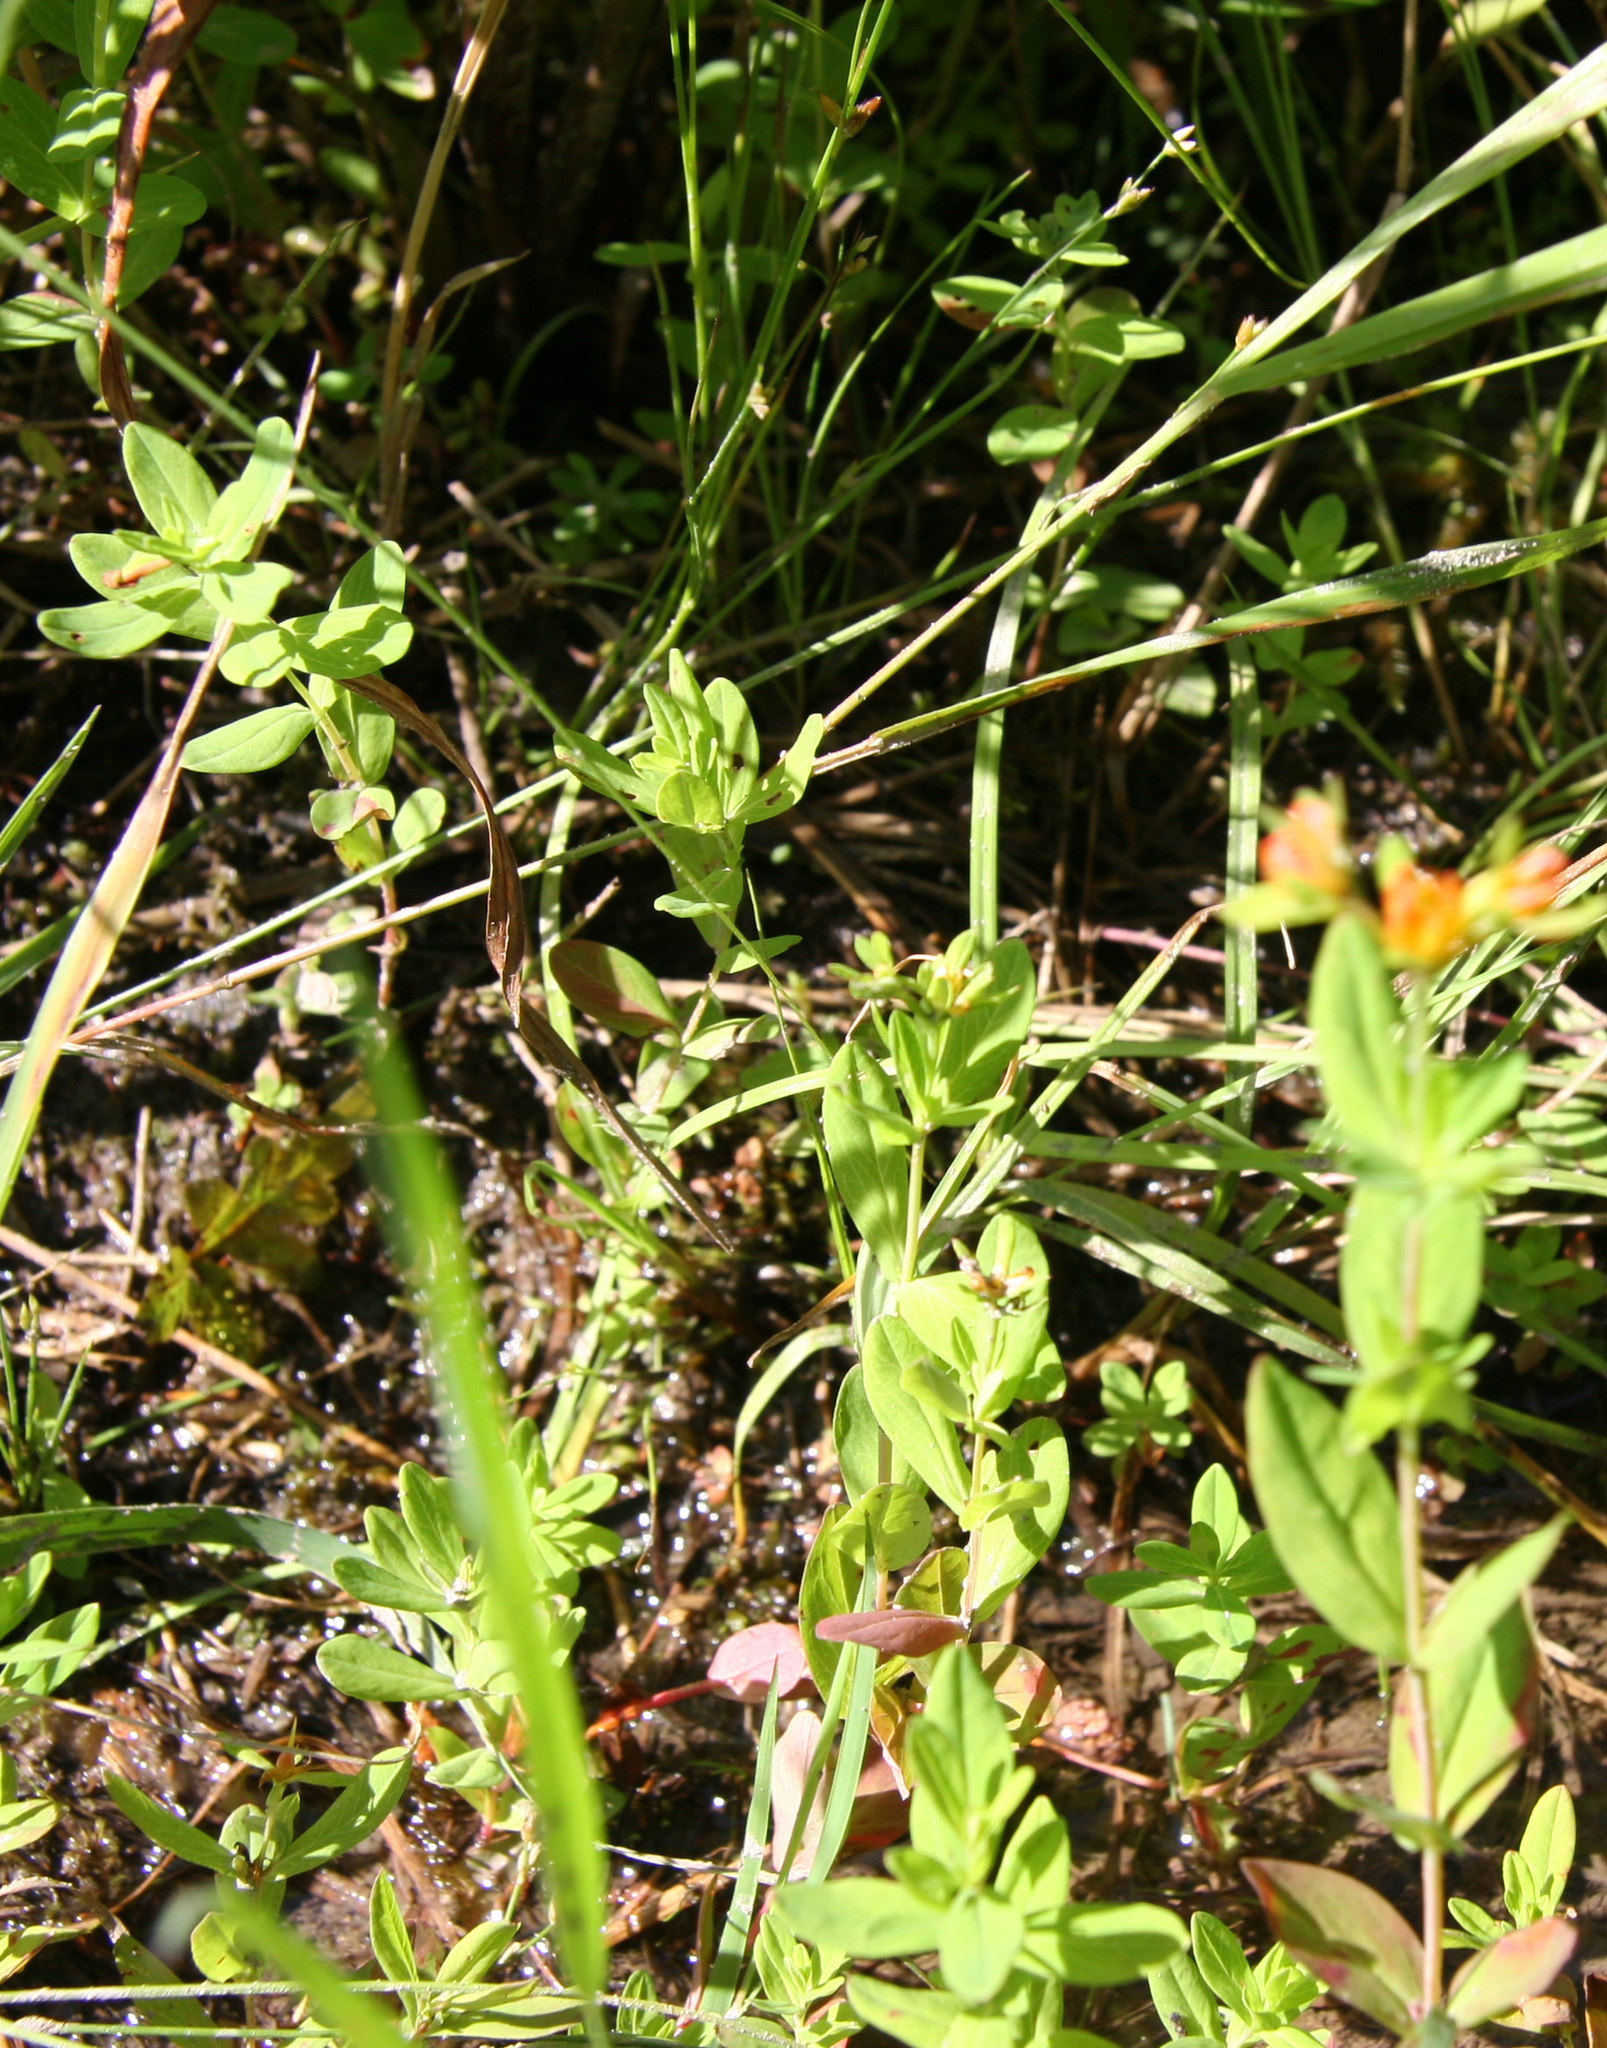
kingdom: Plantae
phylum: Tracheophyta
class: Magnoliopsida
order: Malpighiales
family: Hypericaceae
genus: Hypericum
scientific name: Hypericum ellipticum
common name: Elliptic st. john's-wort
